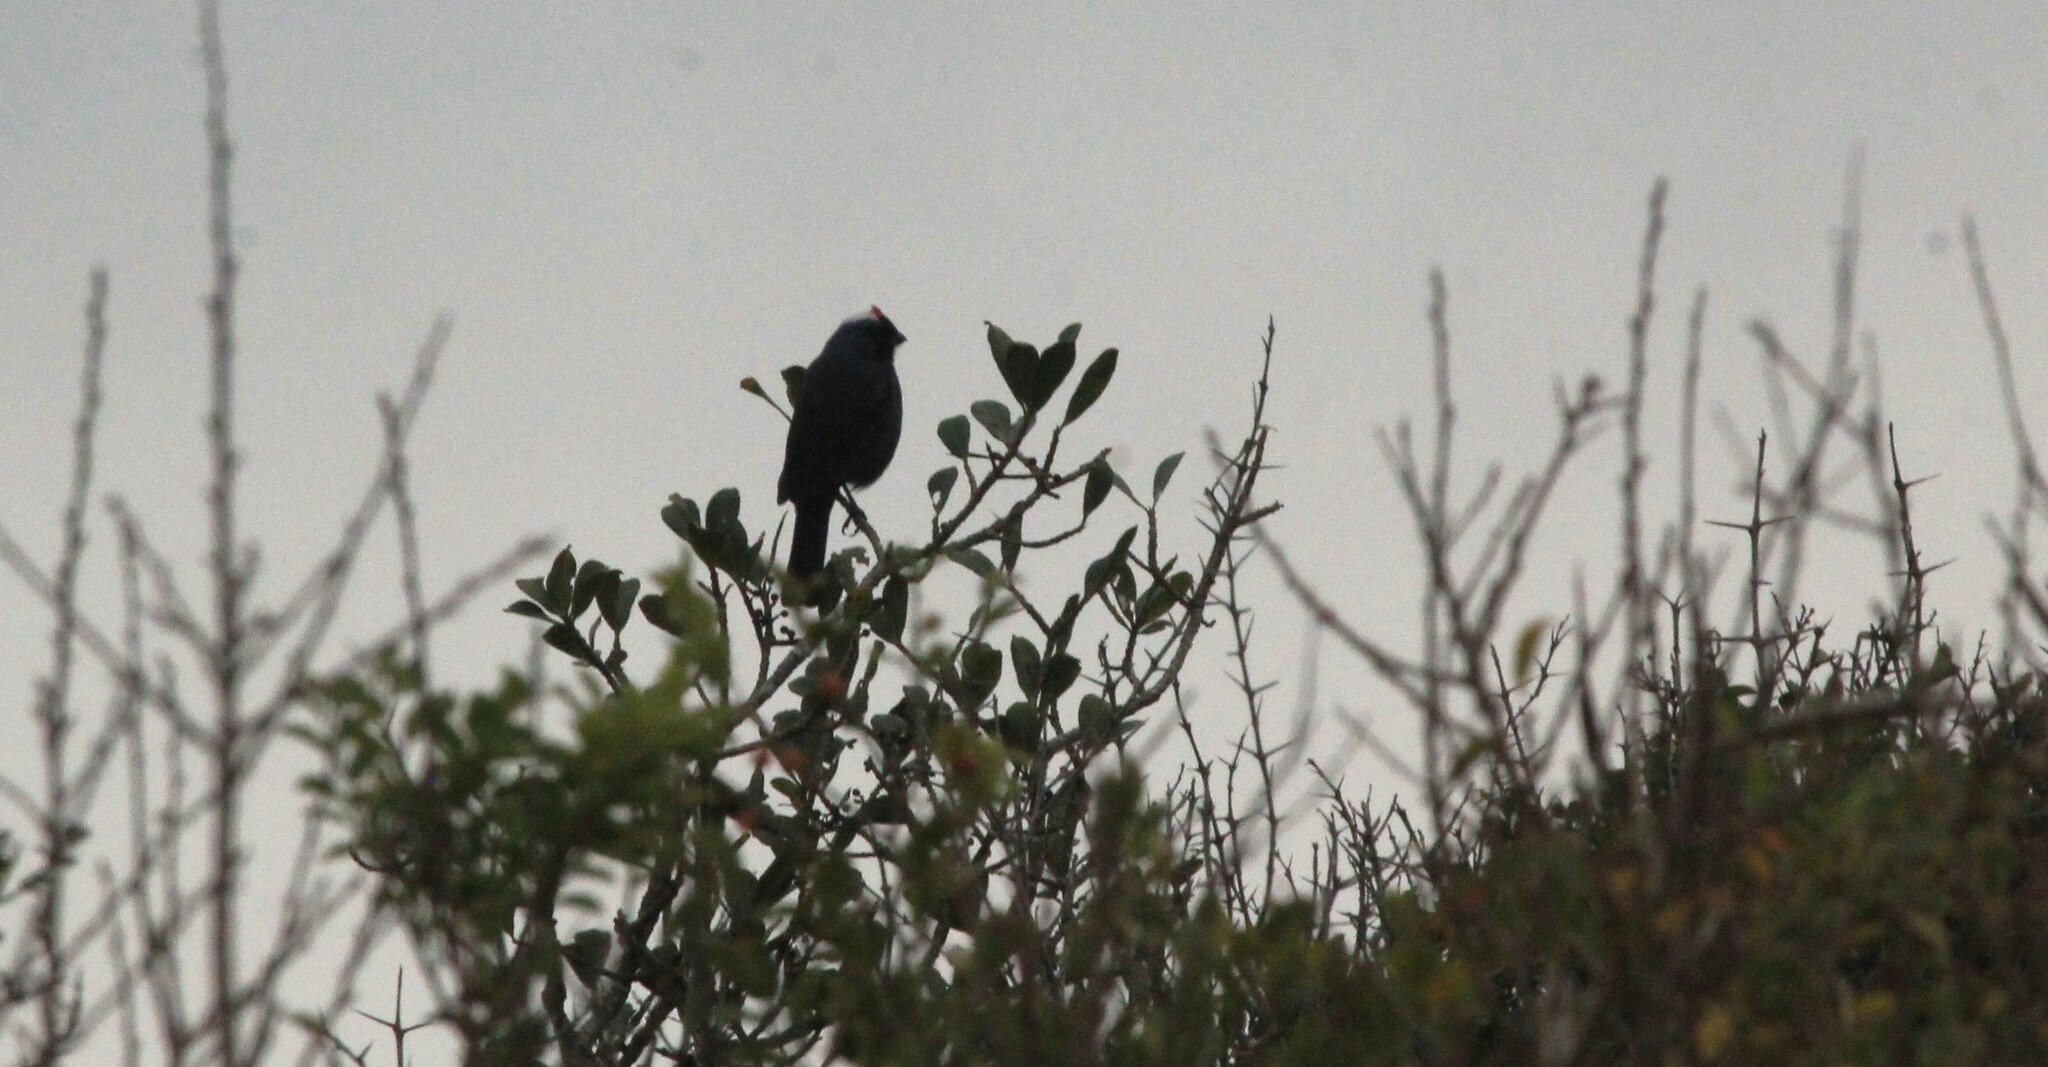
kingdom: Animalia
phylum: Chordata
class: Aves
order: Passeriformes
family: Thraupidae
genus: Stephanophorus
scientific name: Stephanophorus diadematus
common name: Diademed tanager
